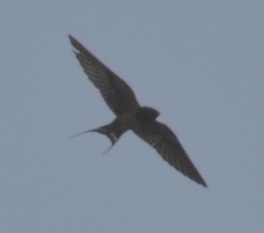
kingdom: Animalia
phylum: Chordata
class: Aves
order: Passeriformes
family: Hirundinidae
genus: Hirundo
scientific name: Hirundo rustica
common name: Barn swallow
